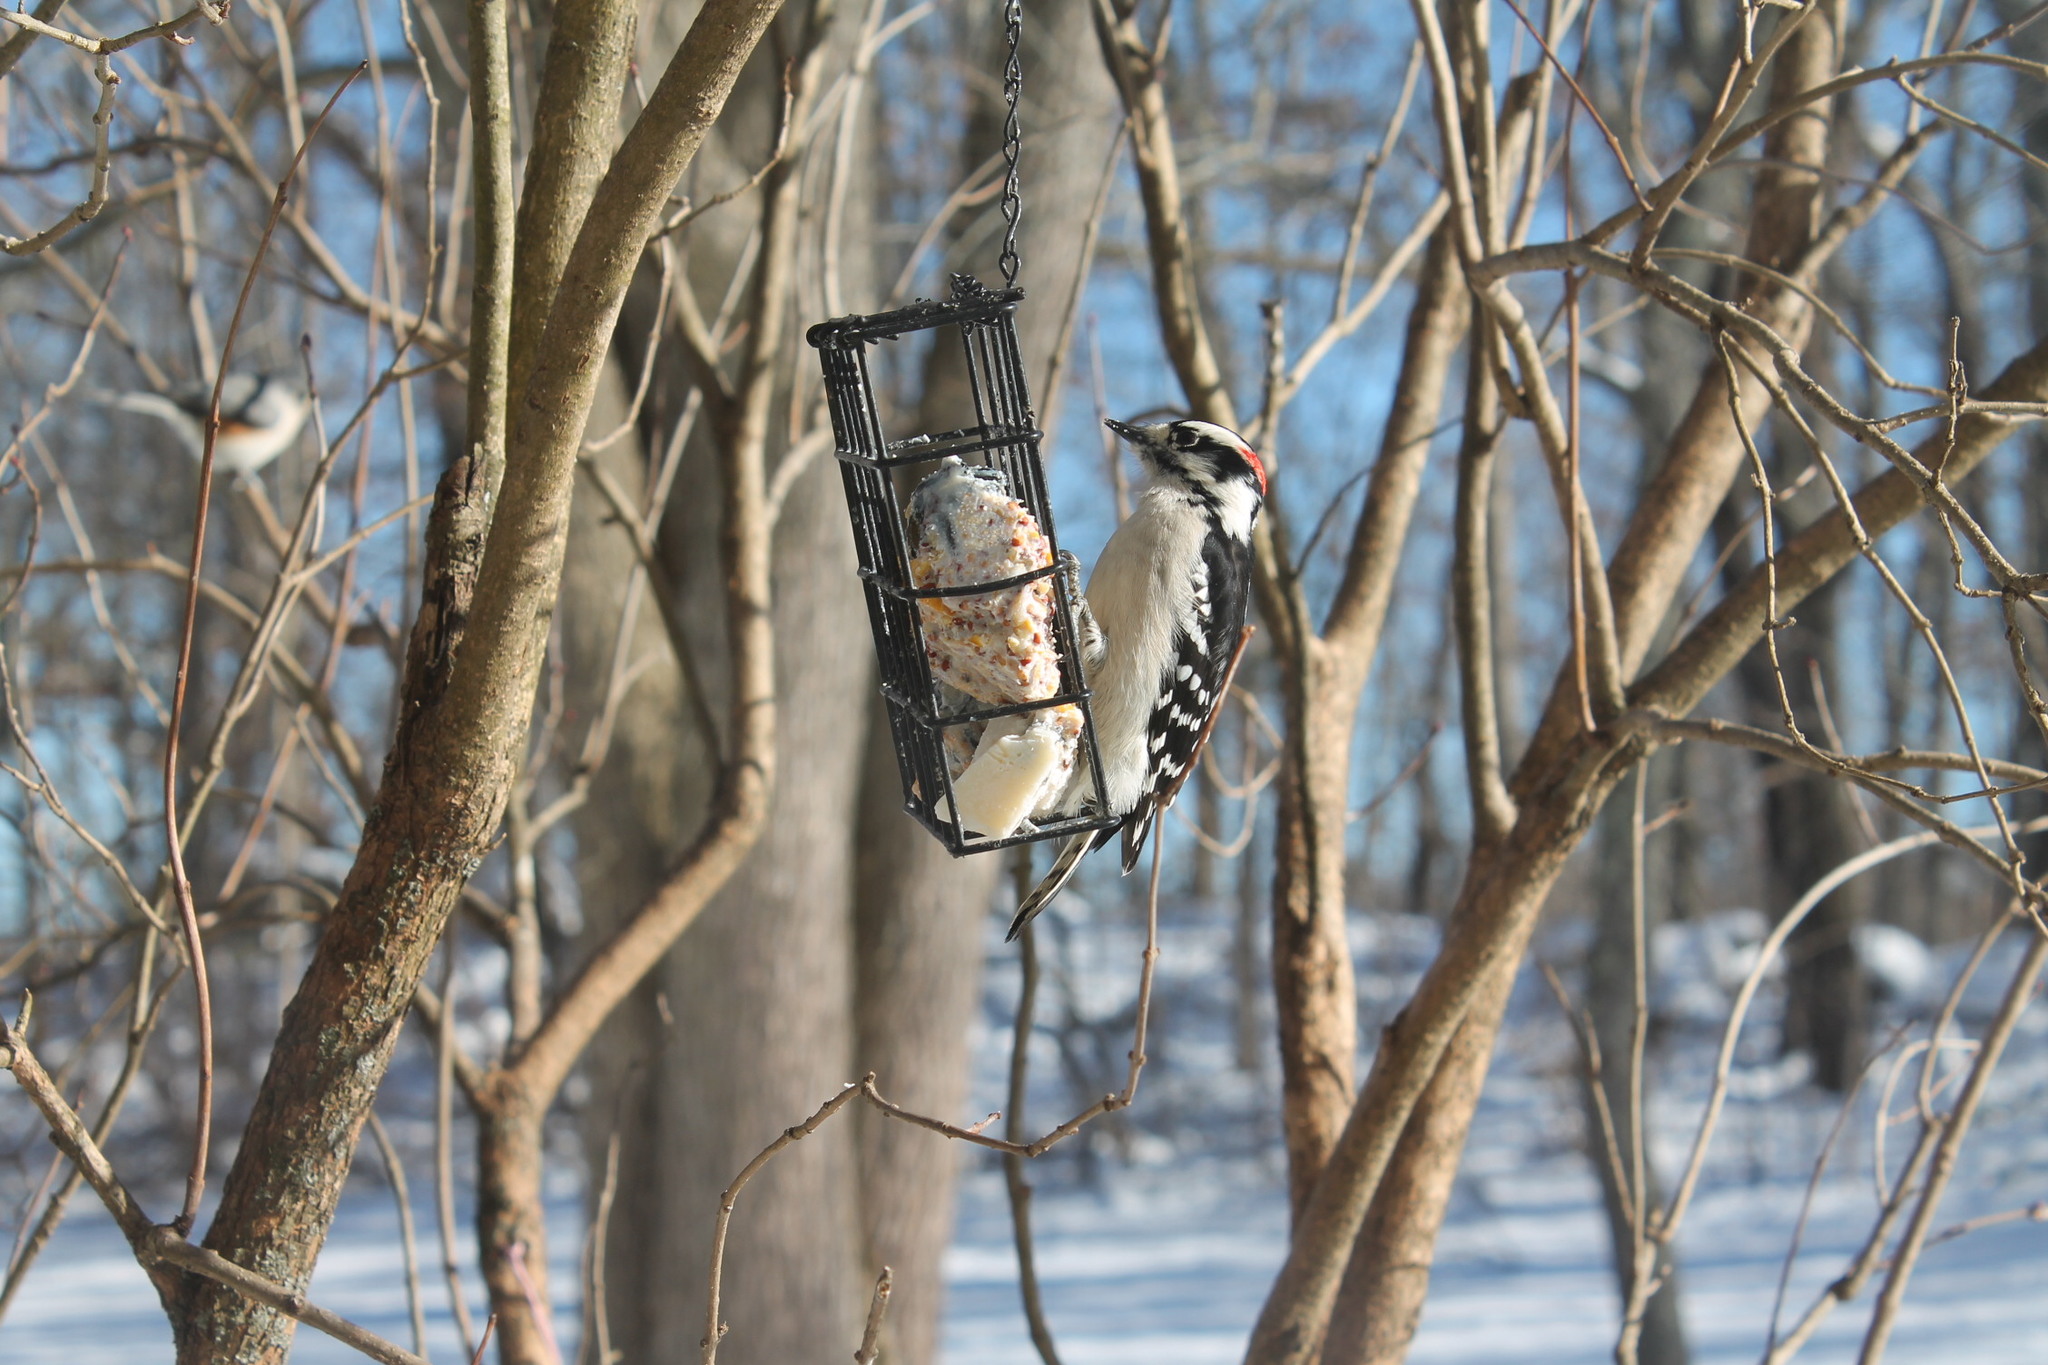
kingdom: Animalia
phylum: Chordata
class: Aves
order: Piciformes
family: Picidae
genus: Dryobates
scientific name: Dryobates pubescens
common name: Downy woodpecker
